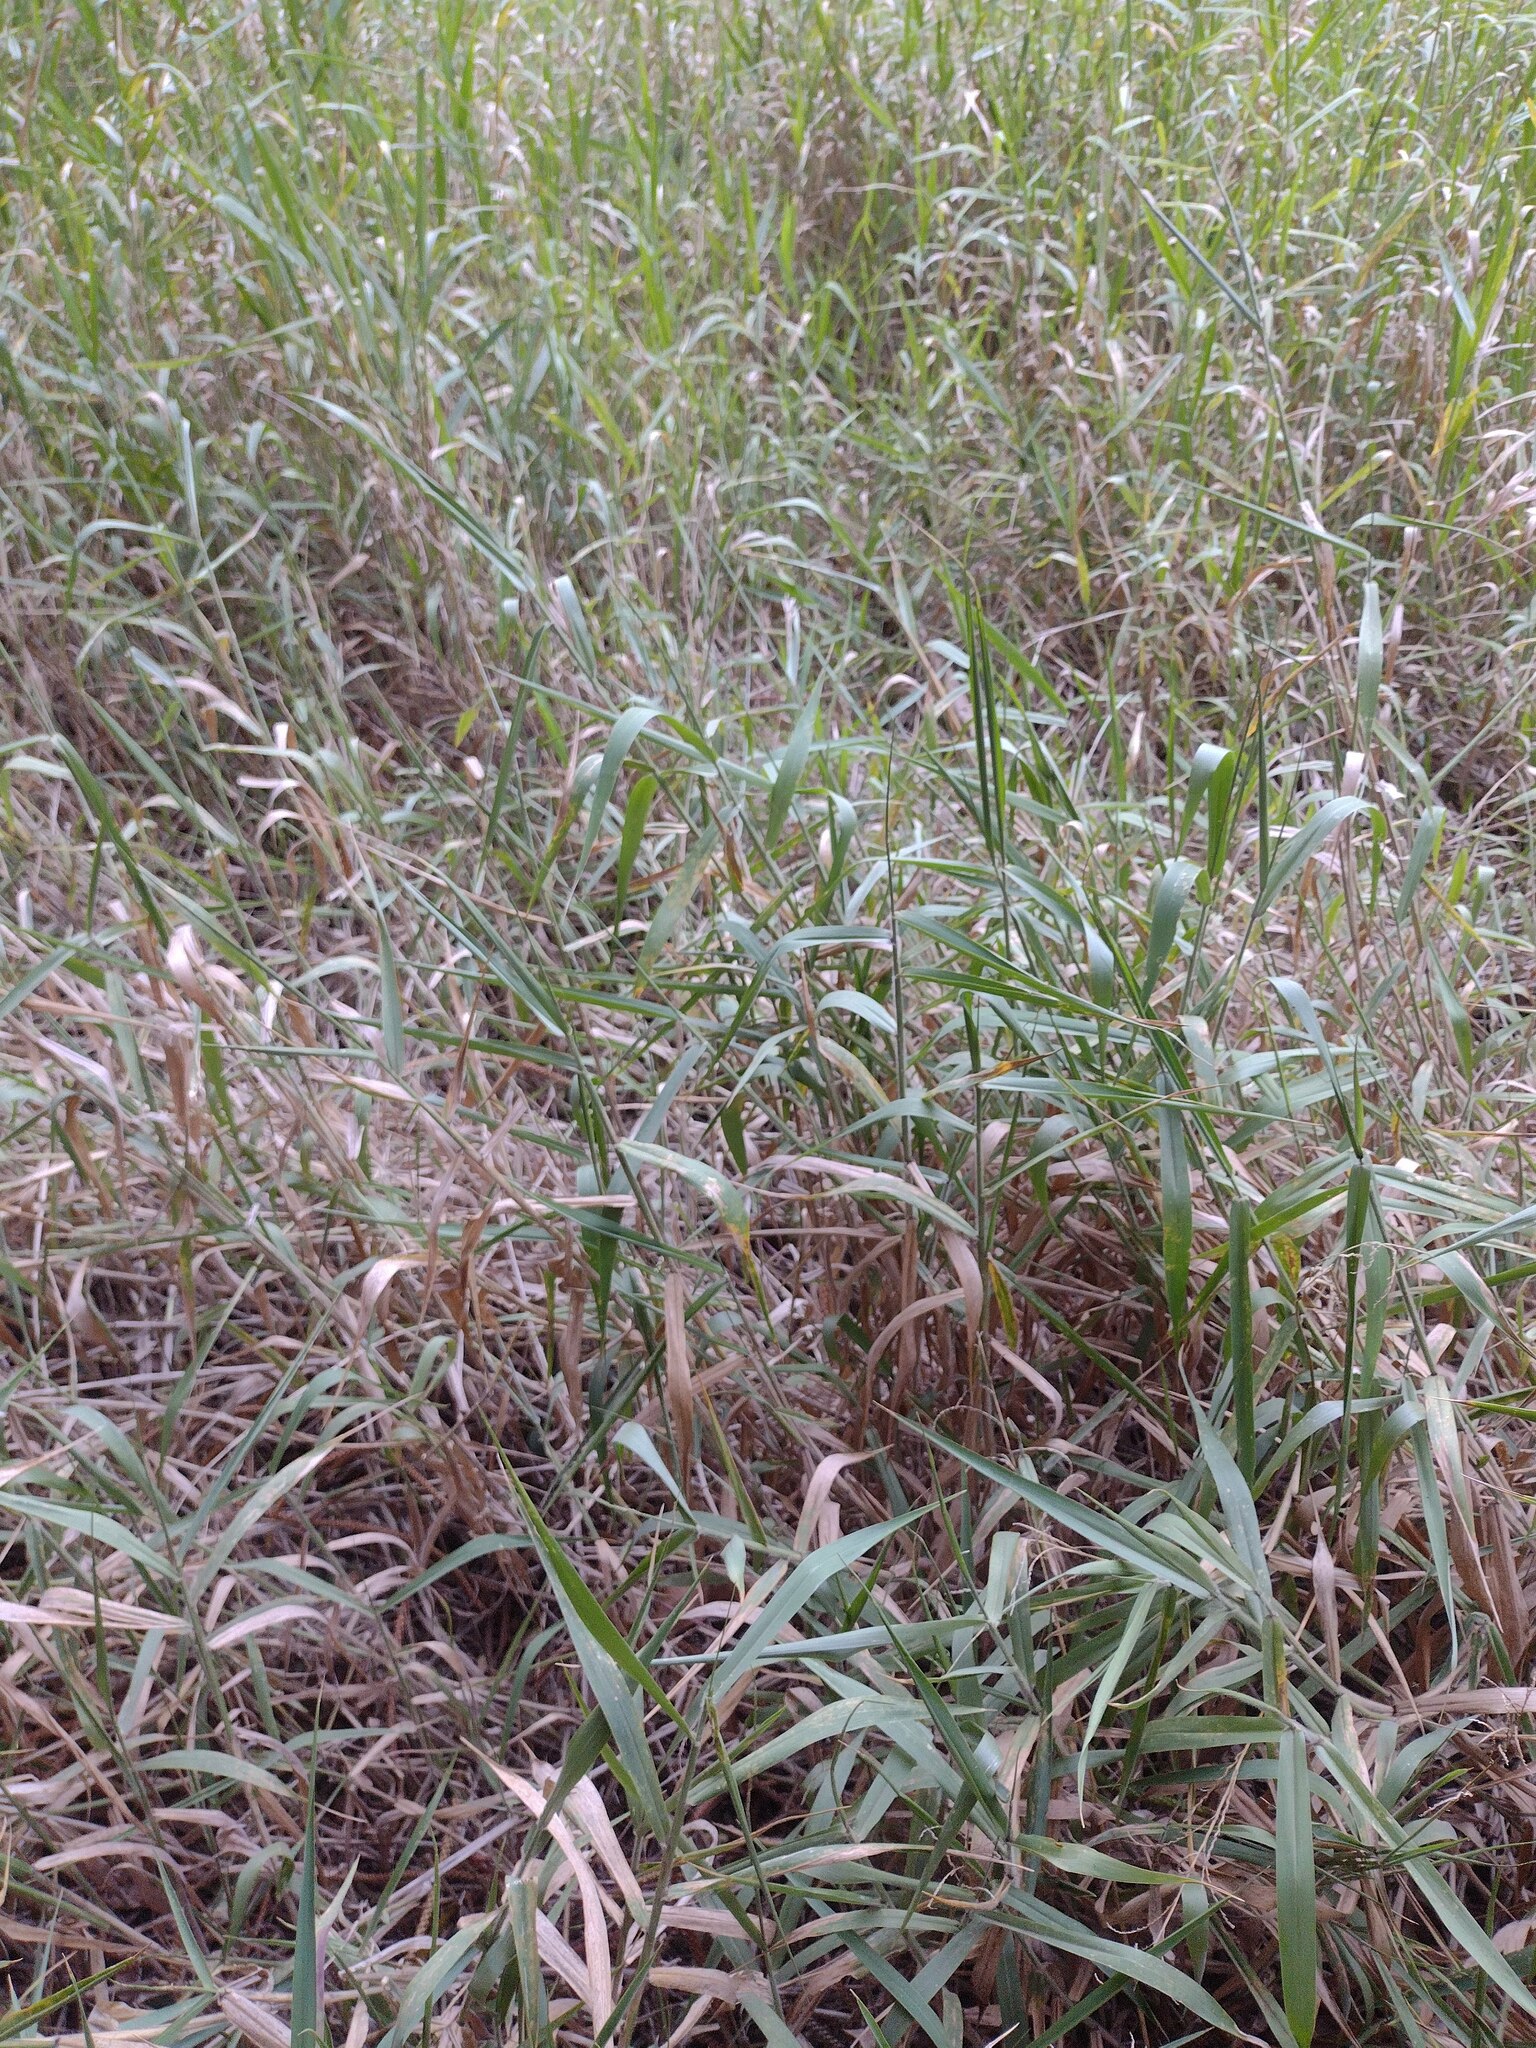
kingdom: Plantae
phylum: Tracheophyta
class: Liliopsida
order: Poales
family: Poaceae
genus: Urochloa
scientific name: Urochloa mutica
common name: Para grass
